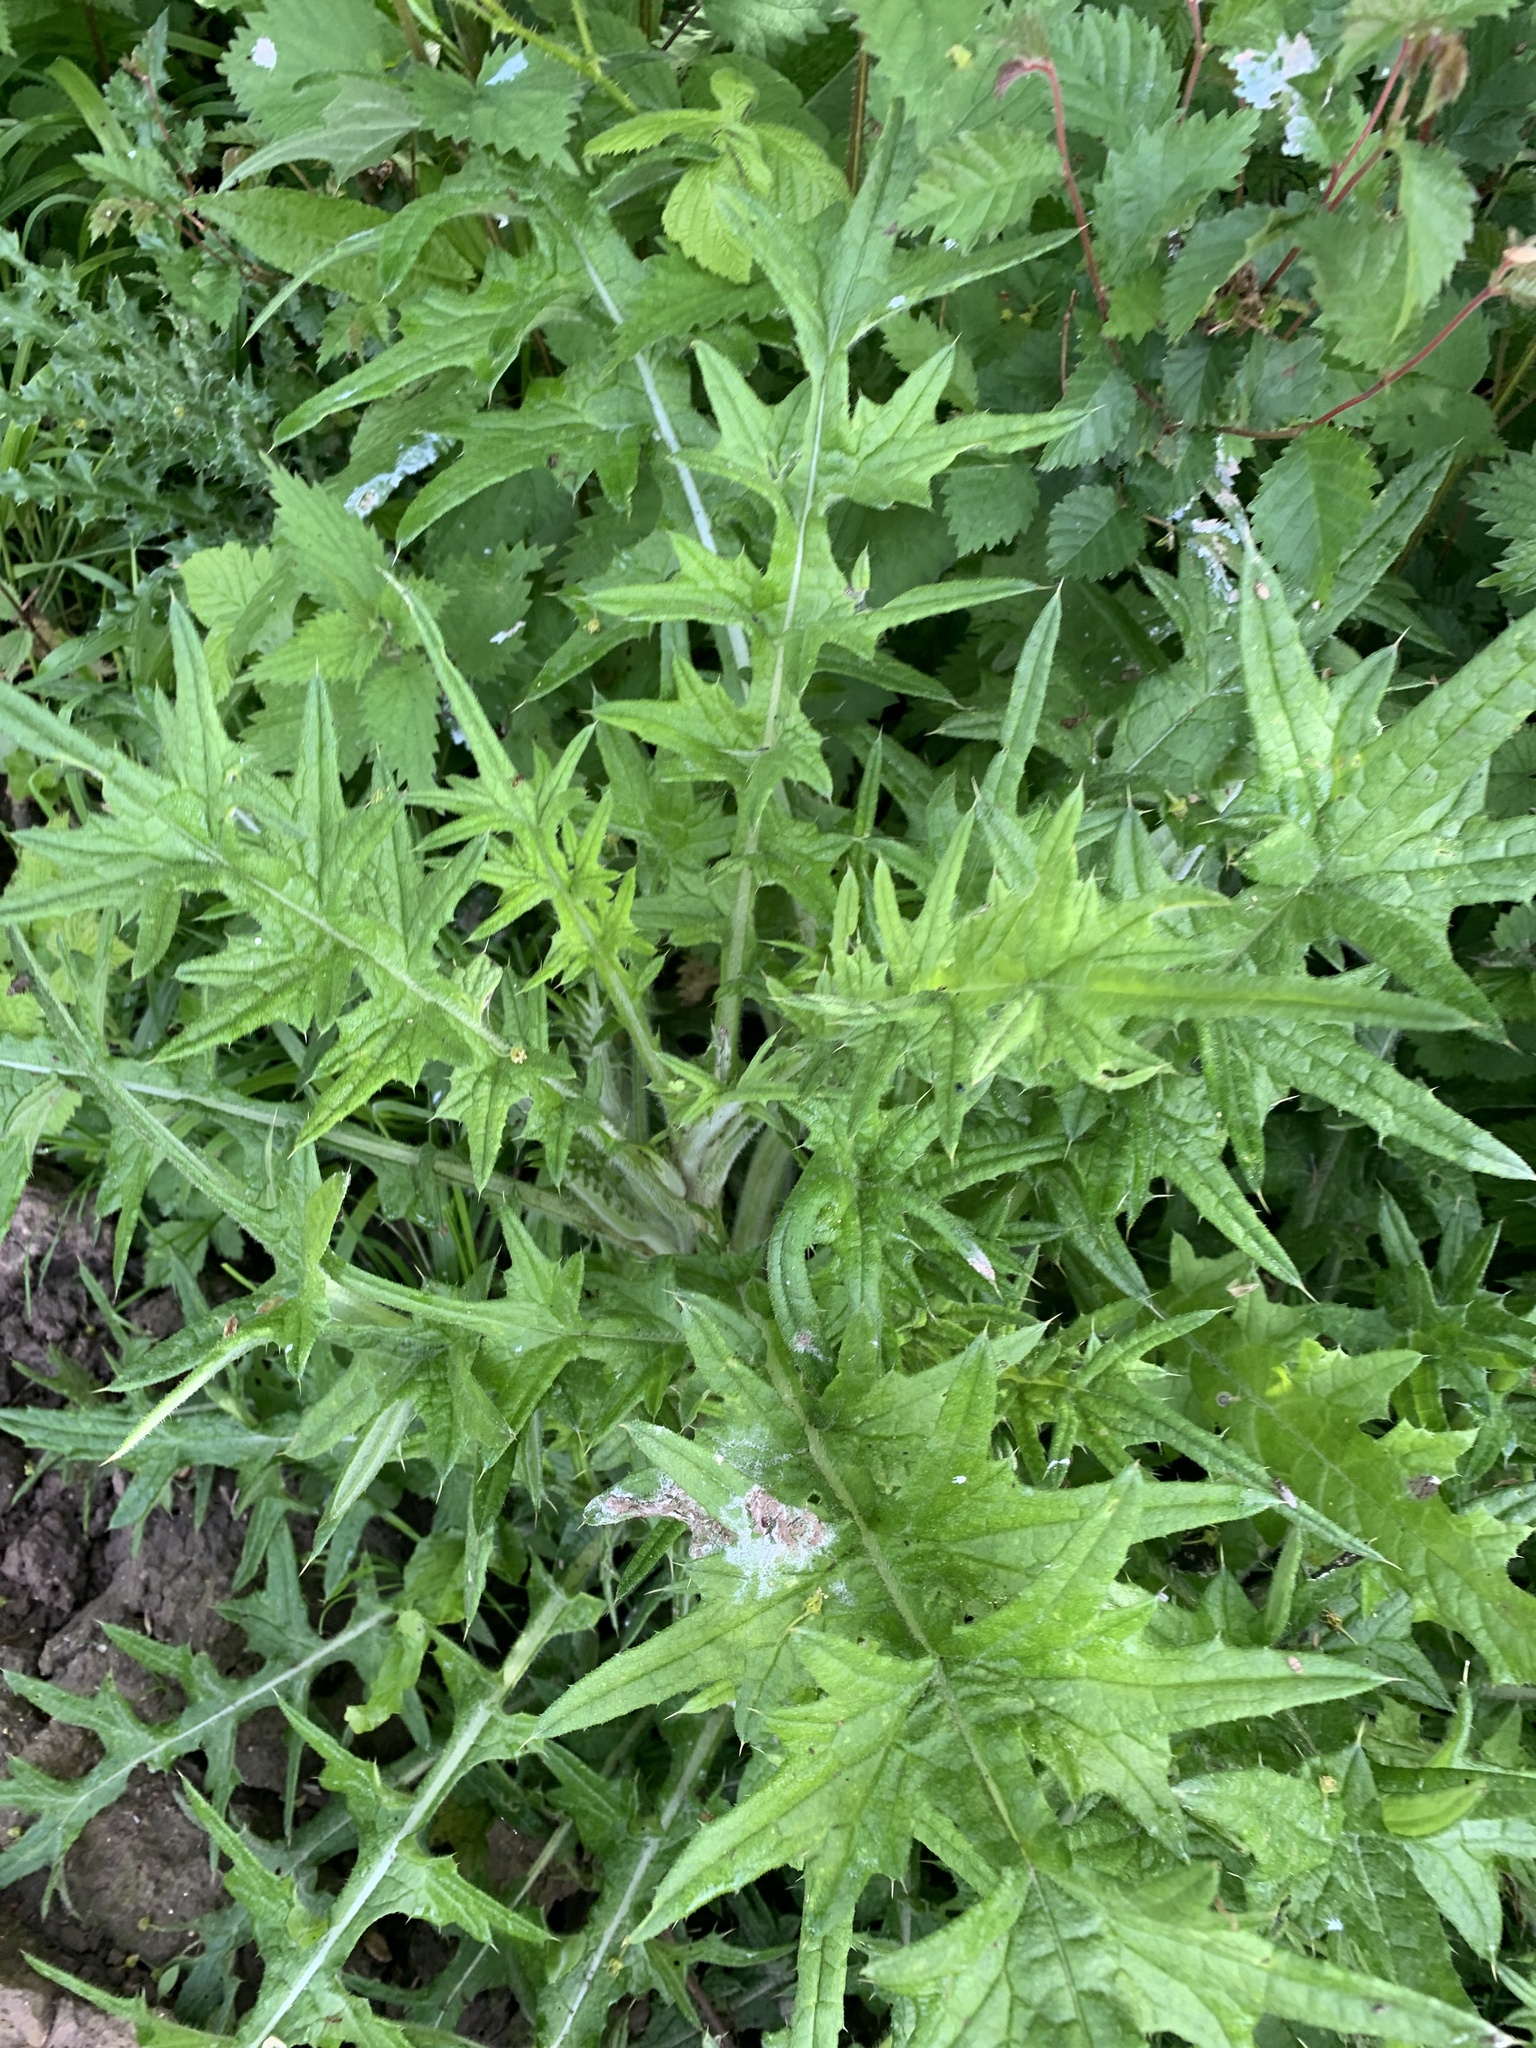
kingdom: Plantae
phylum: Tracheophyta
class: Magnoliopsida
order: Asterales
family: Asteraceae
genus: Cirsium
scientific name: Cirsium vulgare
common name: Bull thistle
